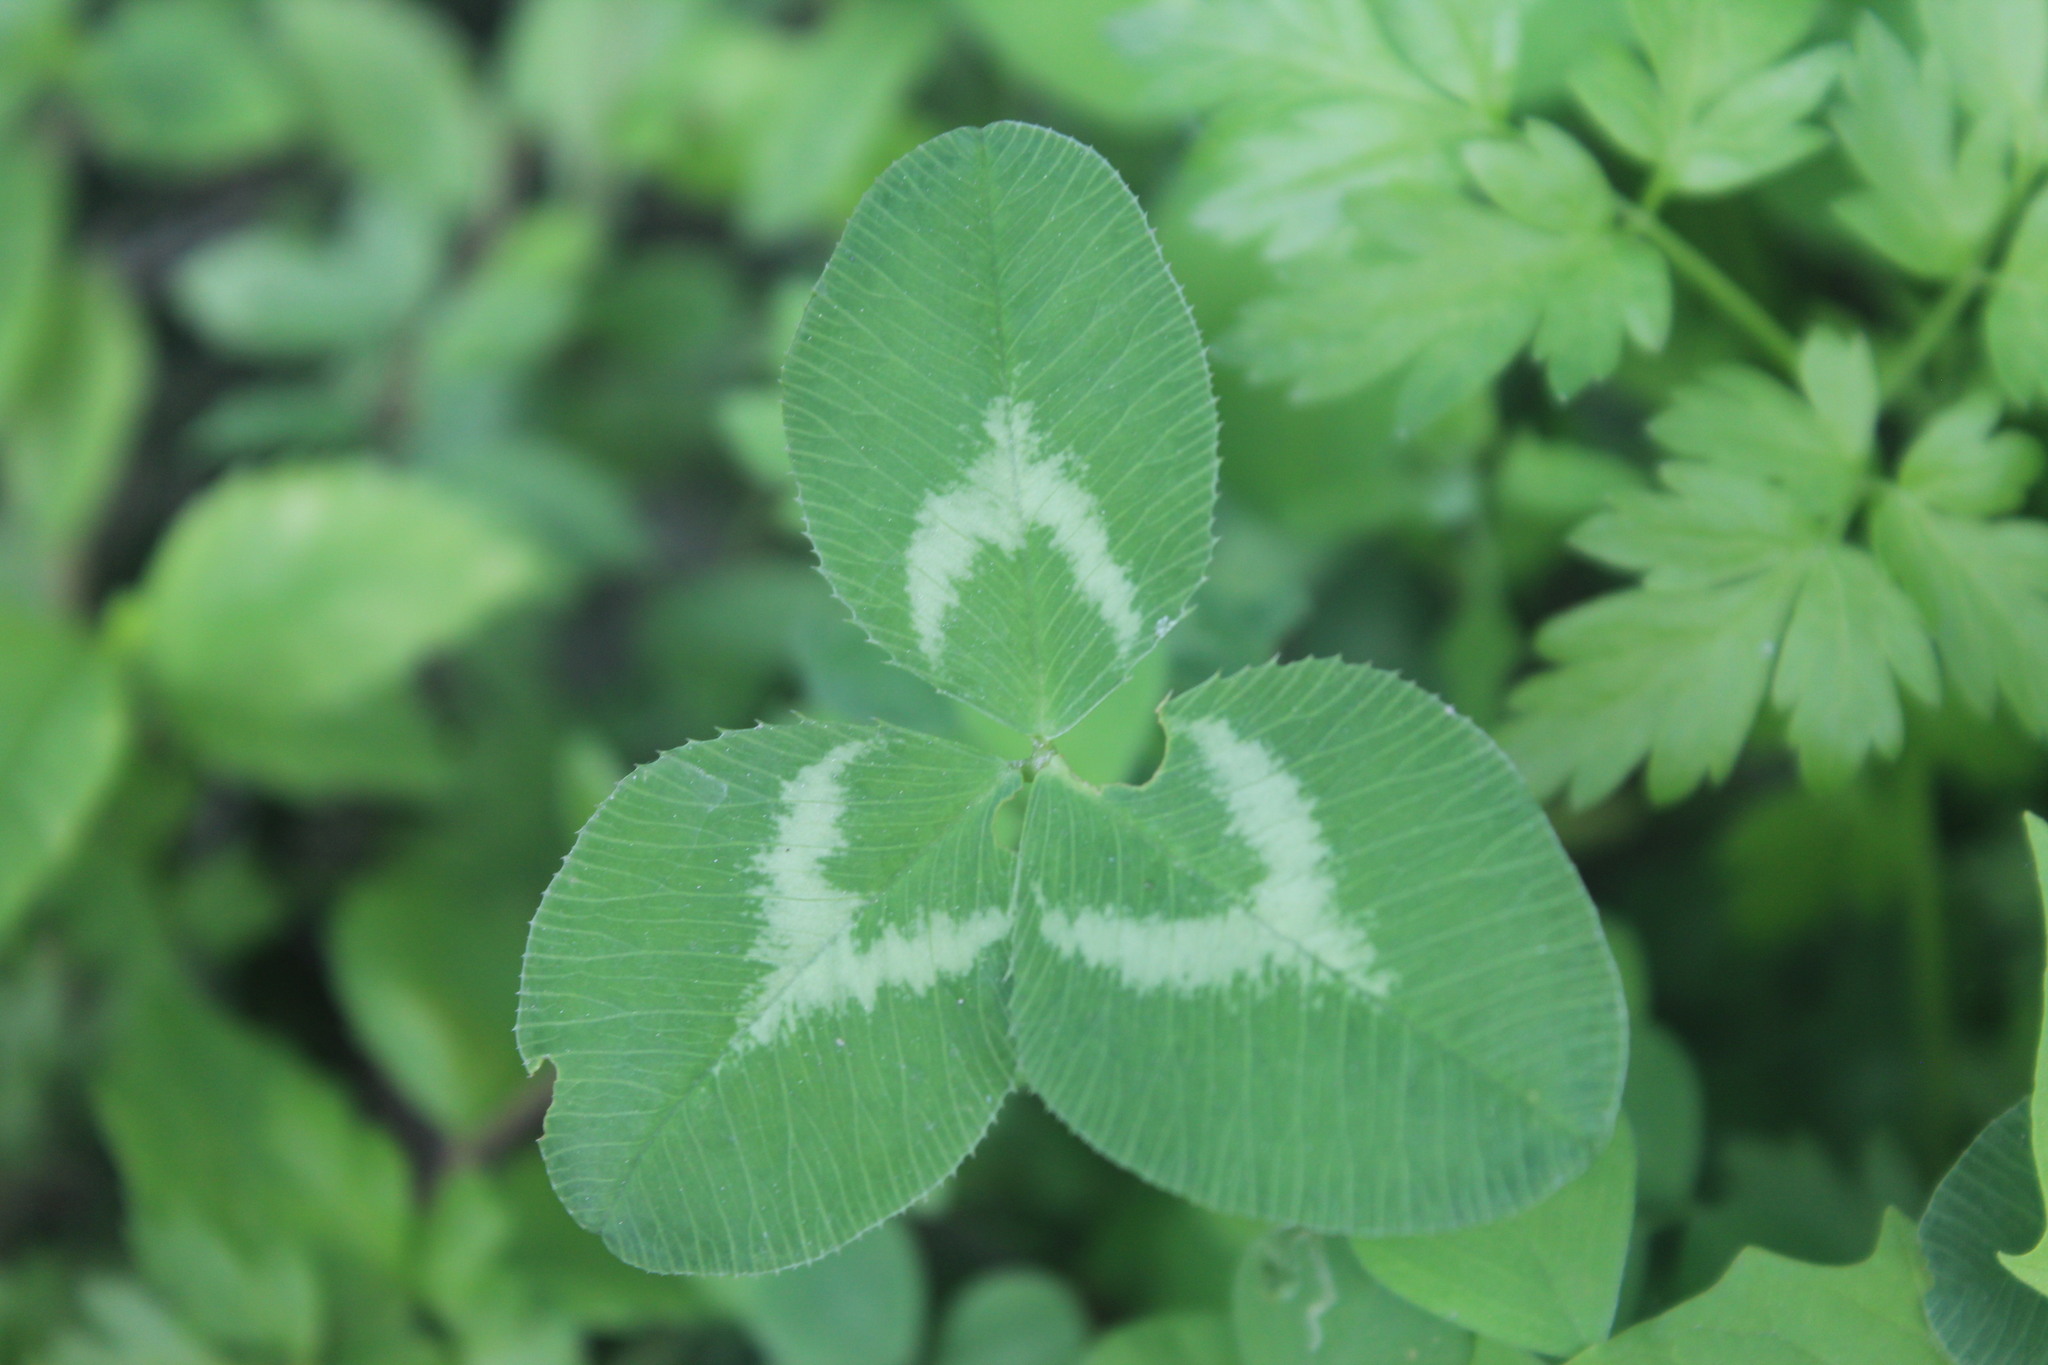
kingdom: Plantae
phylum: Tracheophyta
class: Magnoliopsida
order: Fabales
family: Fabaceae
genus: Trifolium
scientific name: Trifolium repens
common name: White clover
